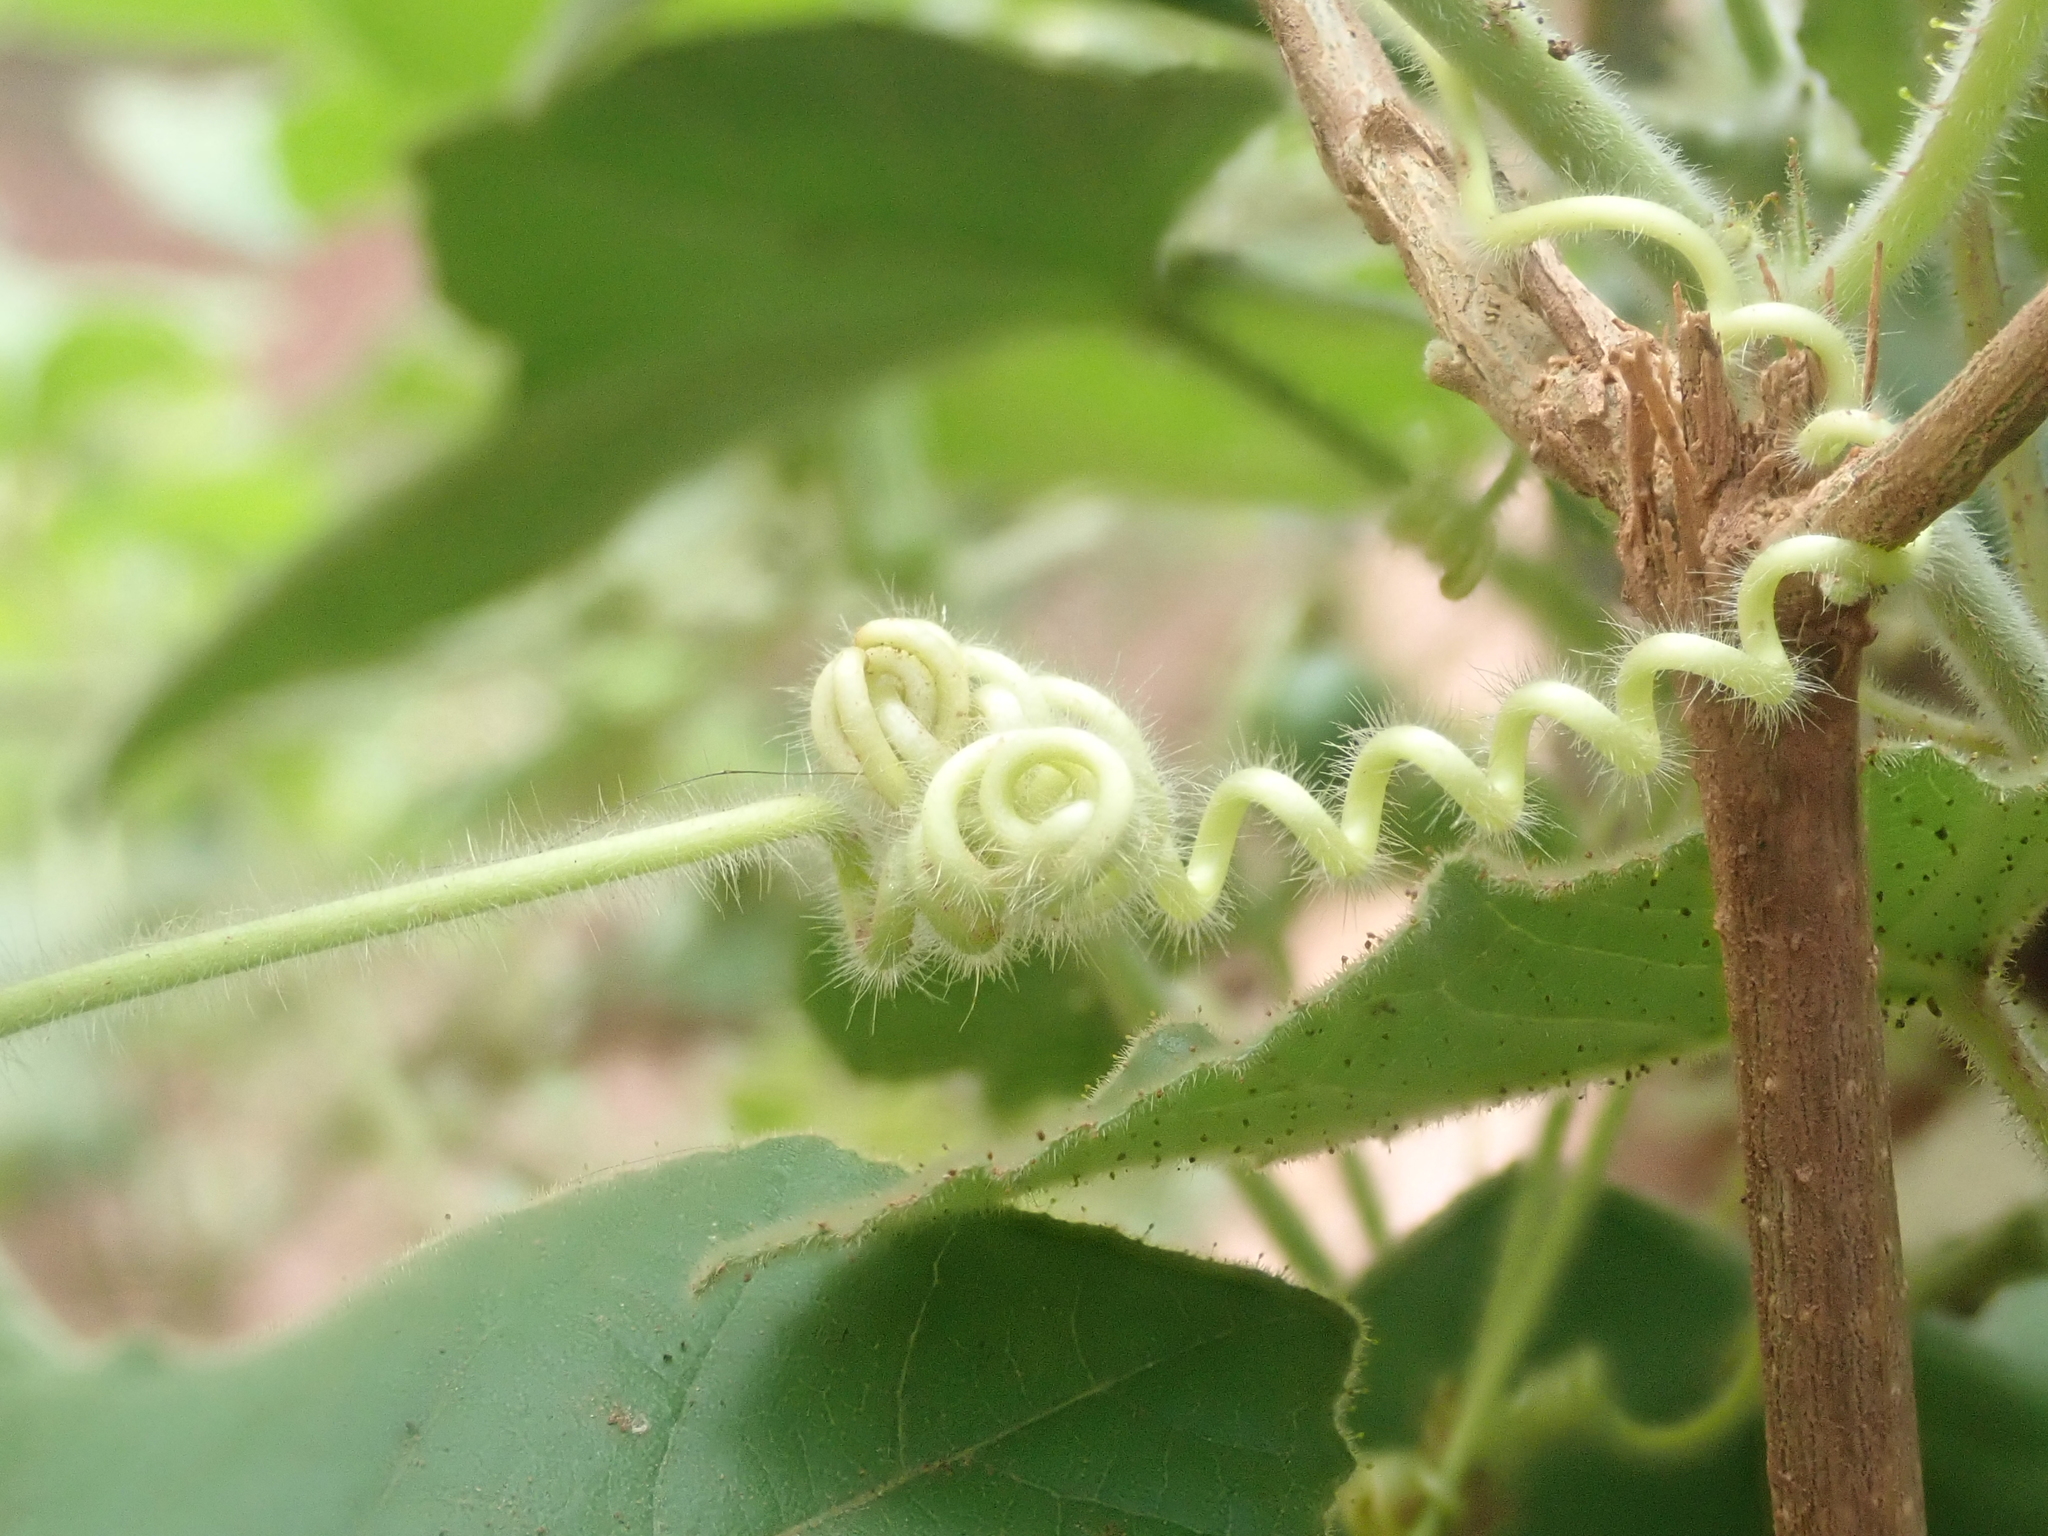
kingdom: Plantae
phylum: Tracheophyta
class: Magnoliopsida
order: Malpighiales
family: Passifloraceae
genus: Passiflora
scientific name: Passiflora foetida
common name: Fetid passionflower
